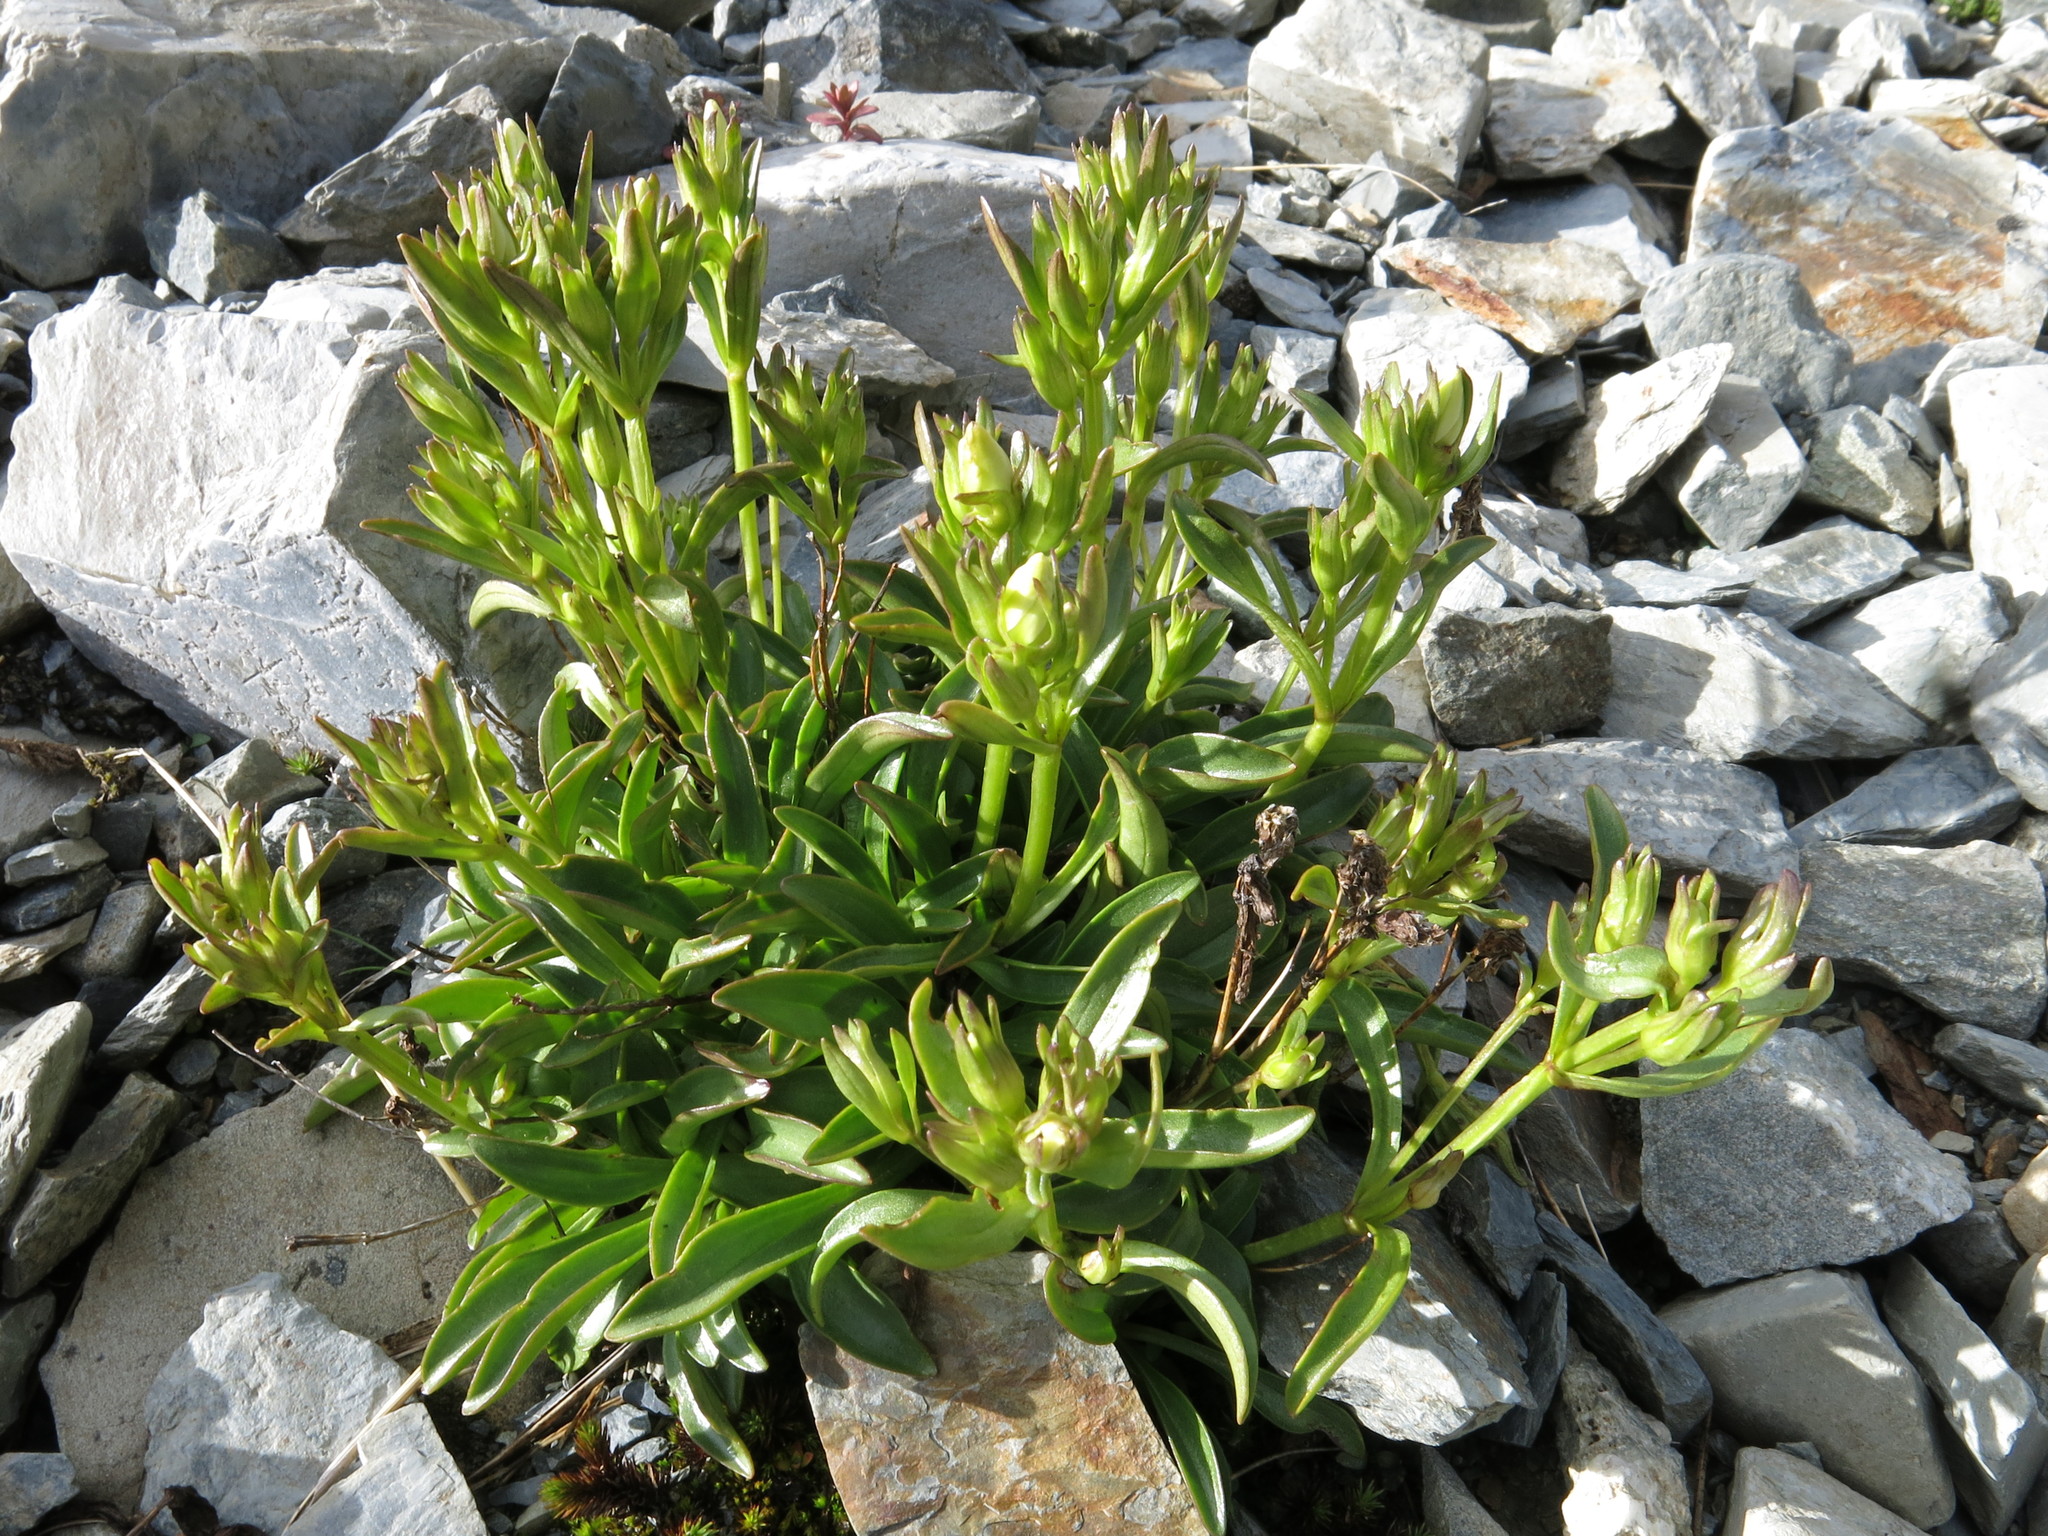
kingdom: Plantae
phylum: Tracheophyta
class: Magnoliopsida
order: Gentianales
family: Gentianaceae
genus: Gentianella
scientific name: Gentianella serotina
